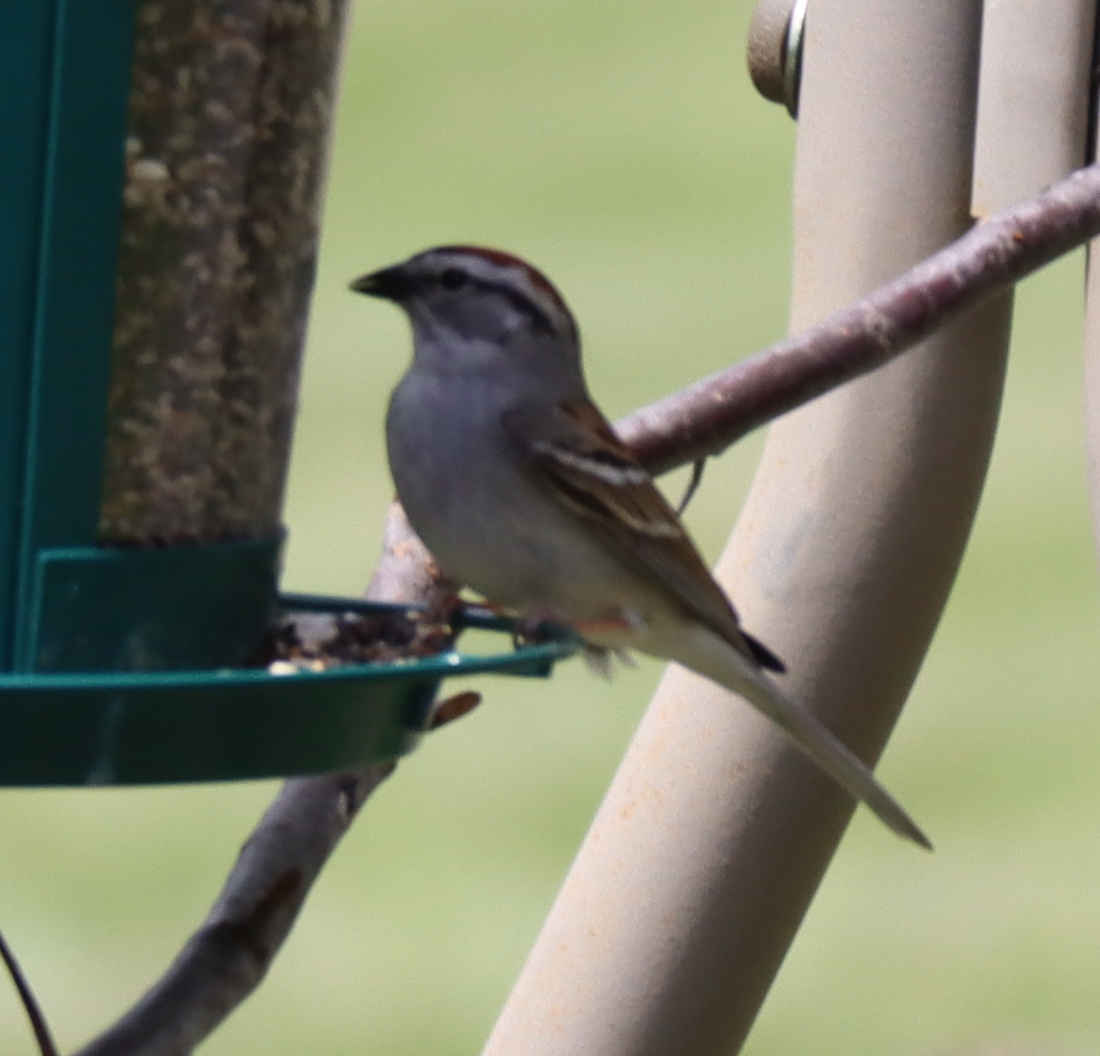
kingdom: Animalia
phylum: Chordata
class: Aves
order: Passeriformes
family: Passerellidae
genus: Spizella
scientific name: Spizella passerina
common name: Chipping sparrow
